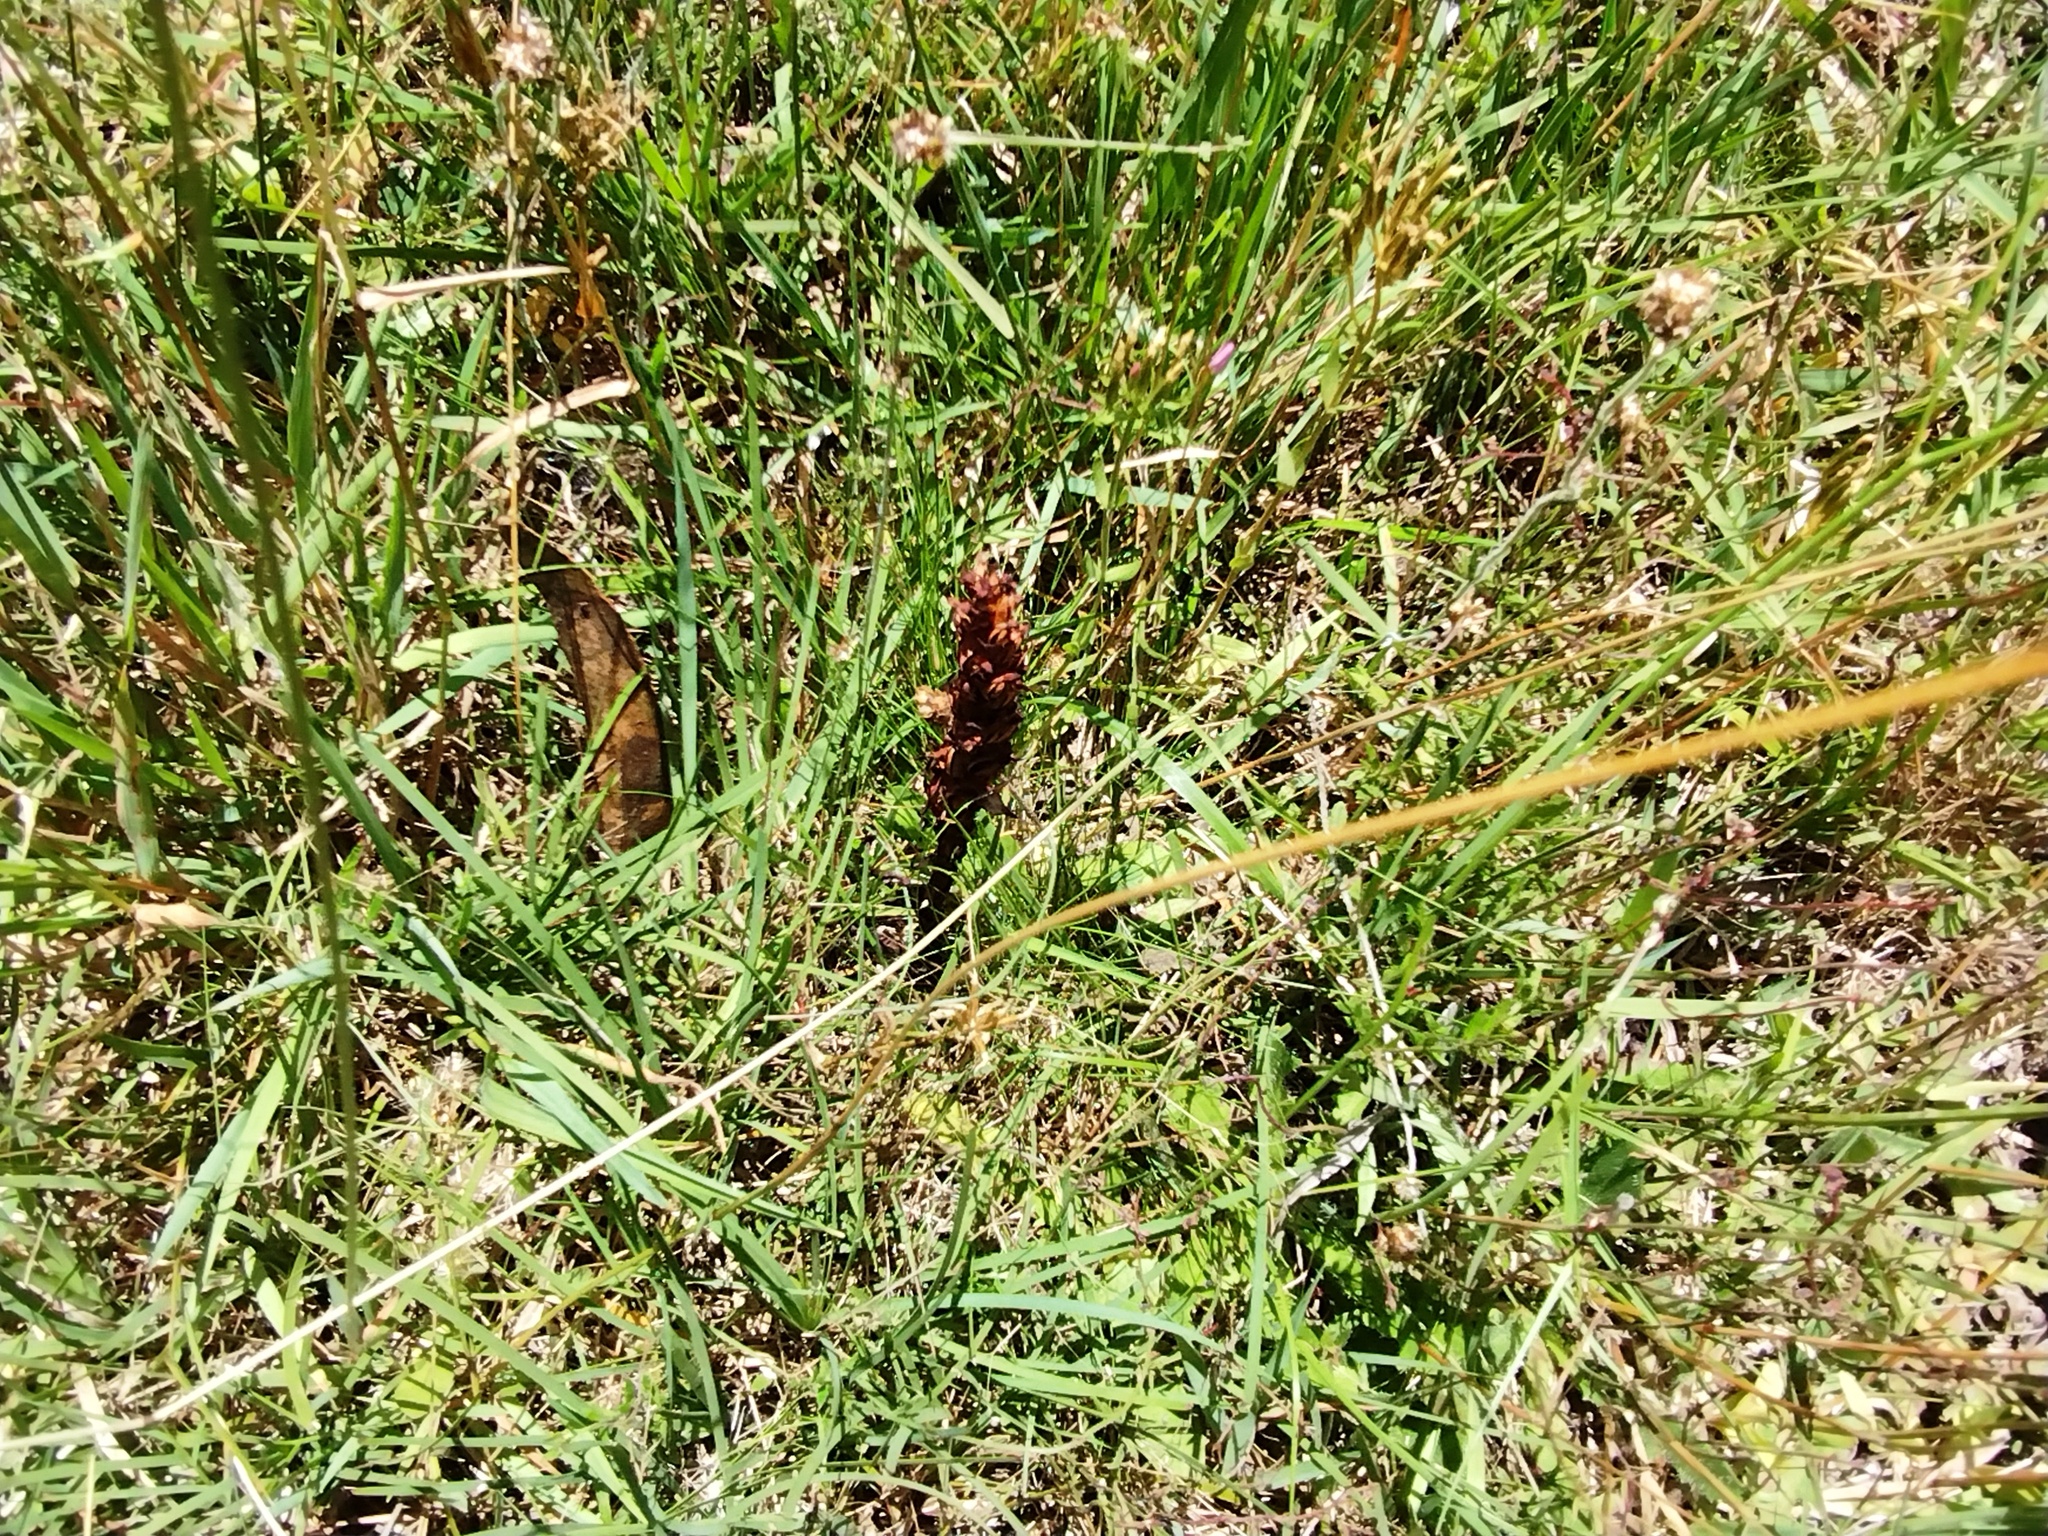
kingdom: Plantae
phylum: Tracheophyta
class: Liliopsida
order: Asparagales
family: Orchidaceae
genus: Disa
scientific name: Disa bracteata
